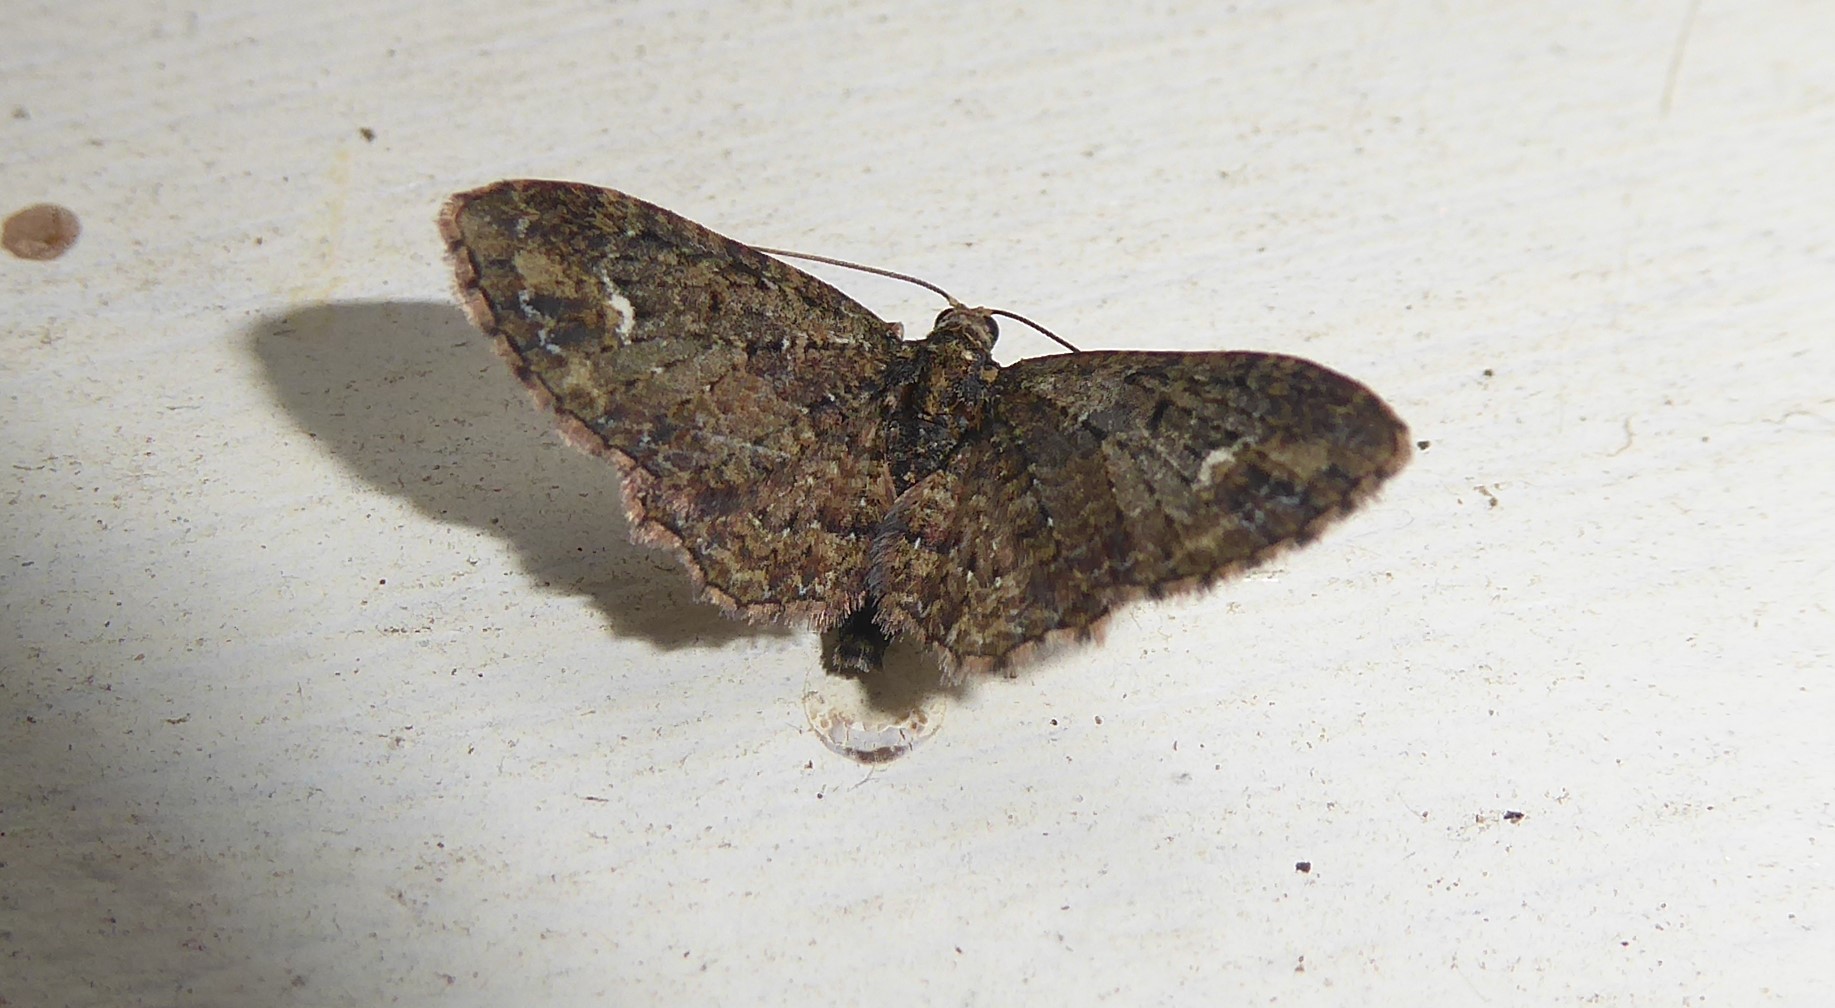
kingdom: Animalia
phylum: Arthropoda
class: Insecta
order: Lepidoptera
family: Geometridae
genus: Pasiphilodes
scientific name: Pasiphilodes testulata
